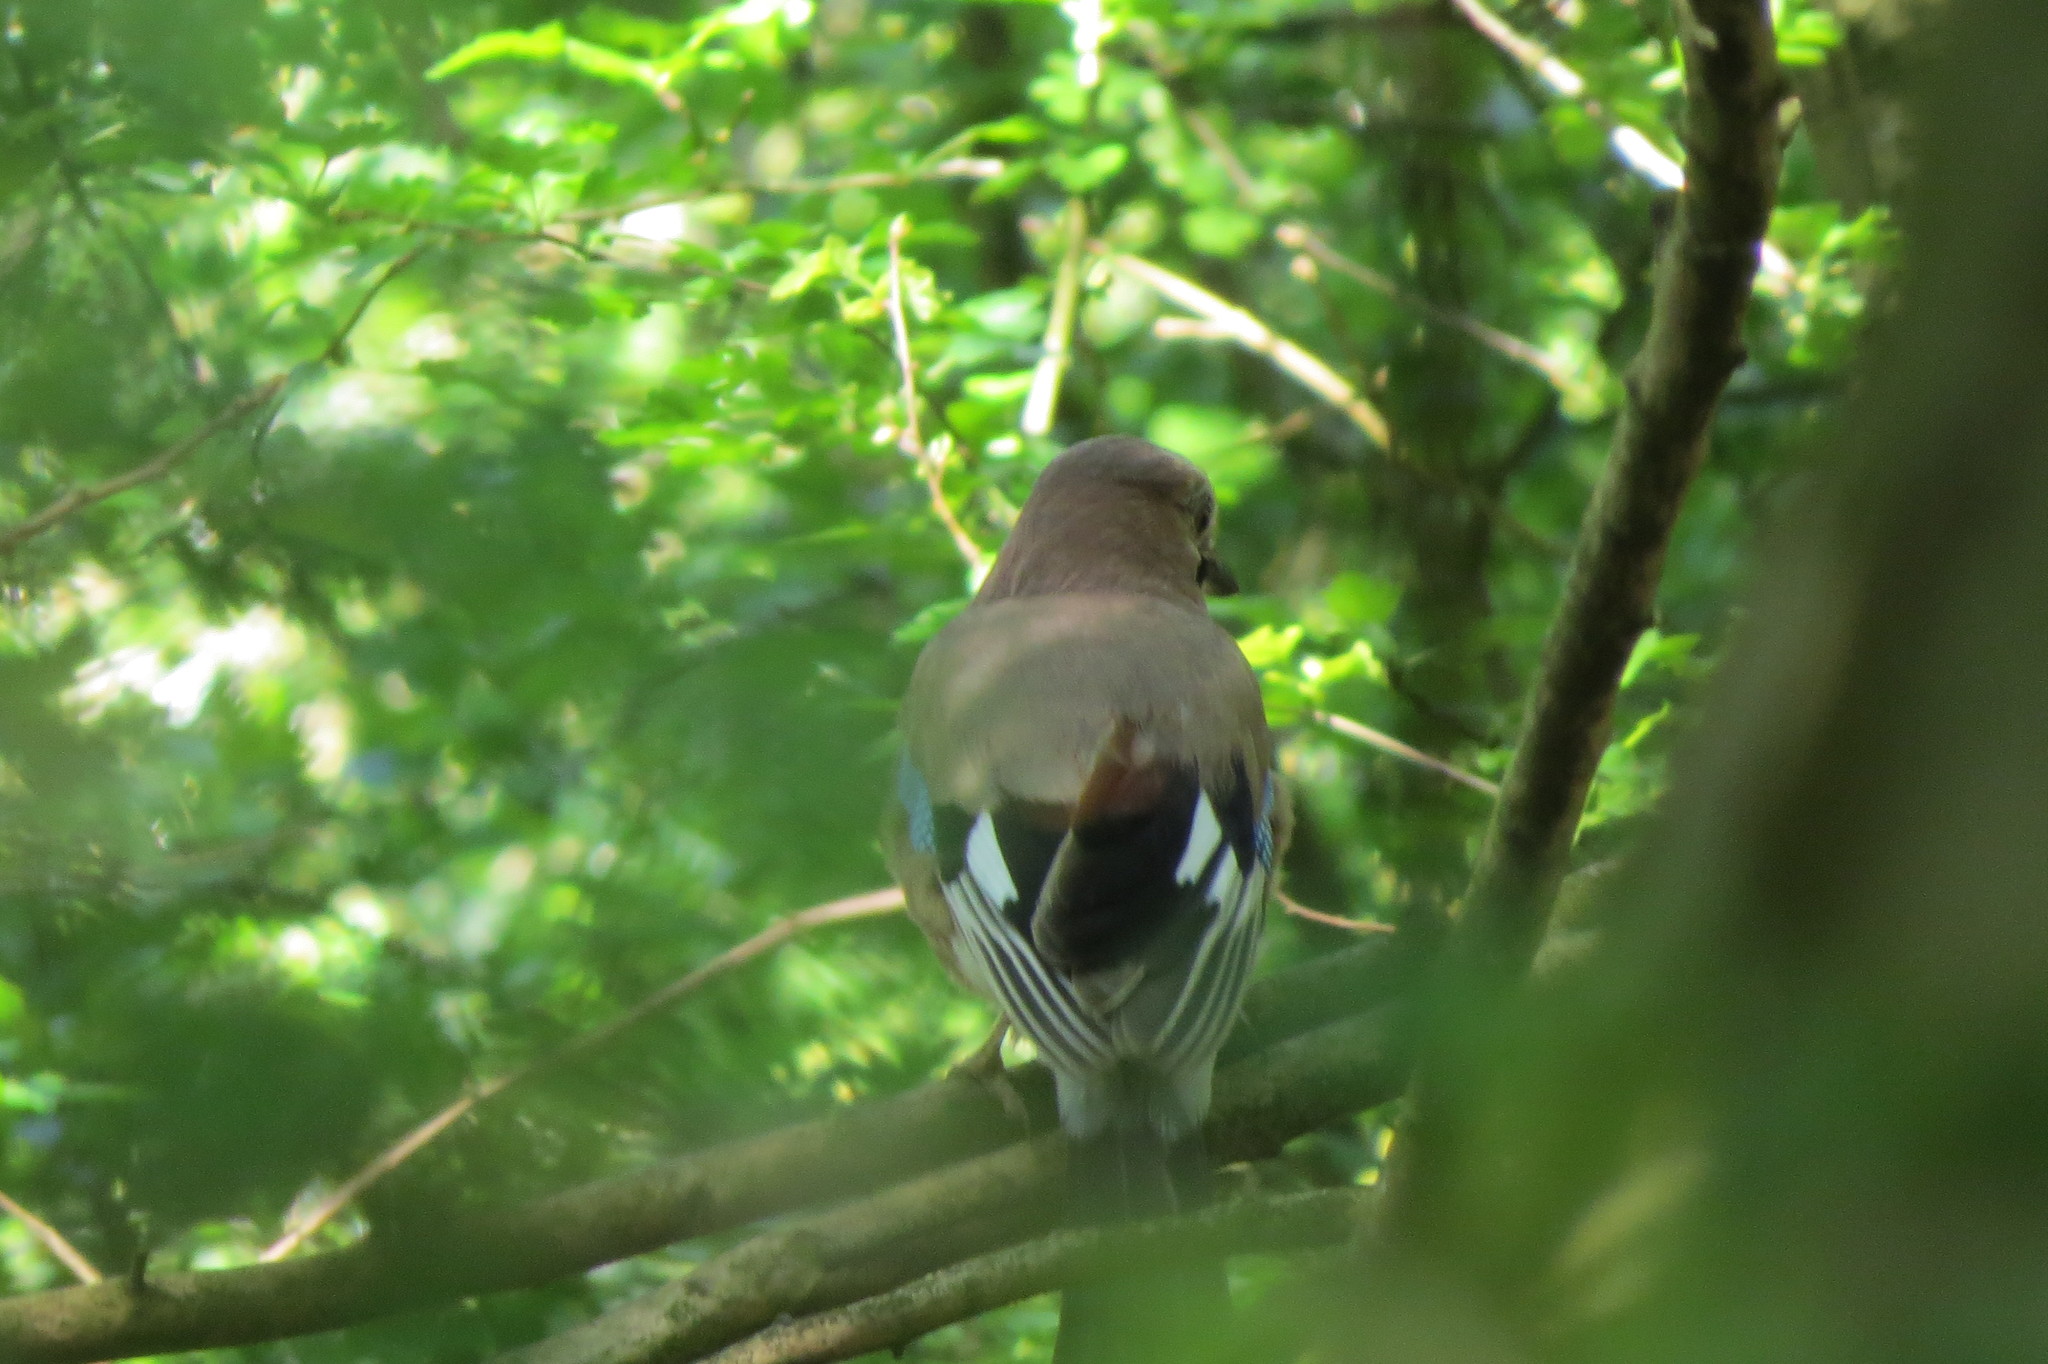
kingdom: Animalia
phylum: Chordata
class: Aves
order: Passeriformes
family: Corvidae
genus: Garrulus
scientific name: Garrulus glandarius
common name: Eurasian jay
